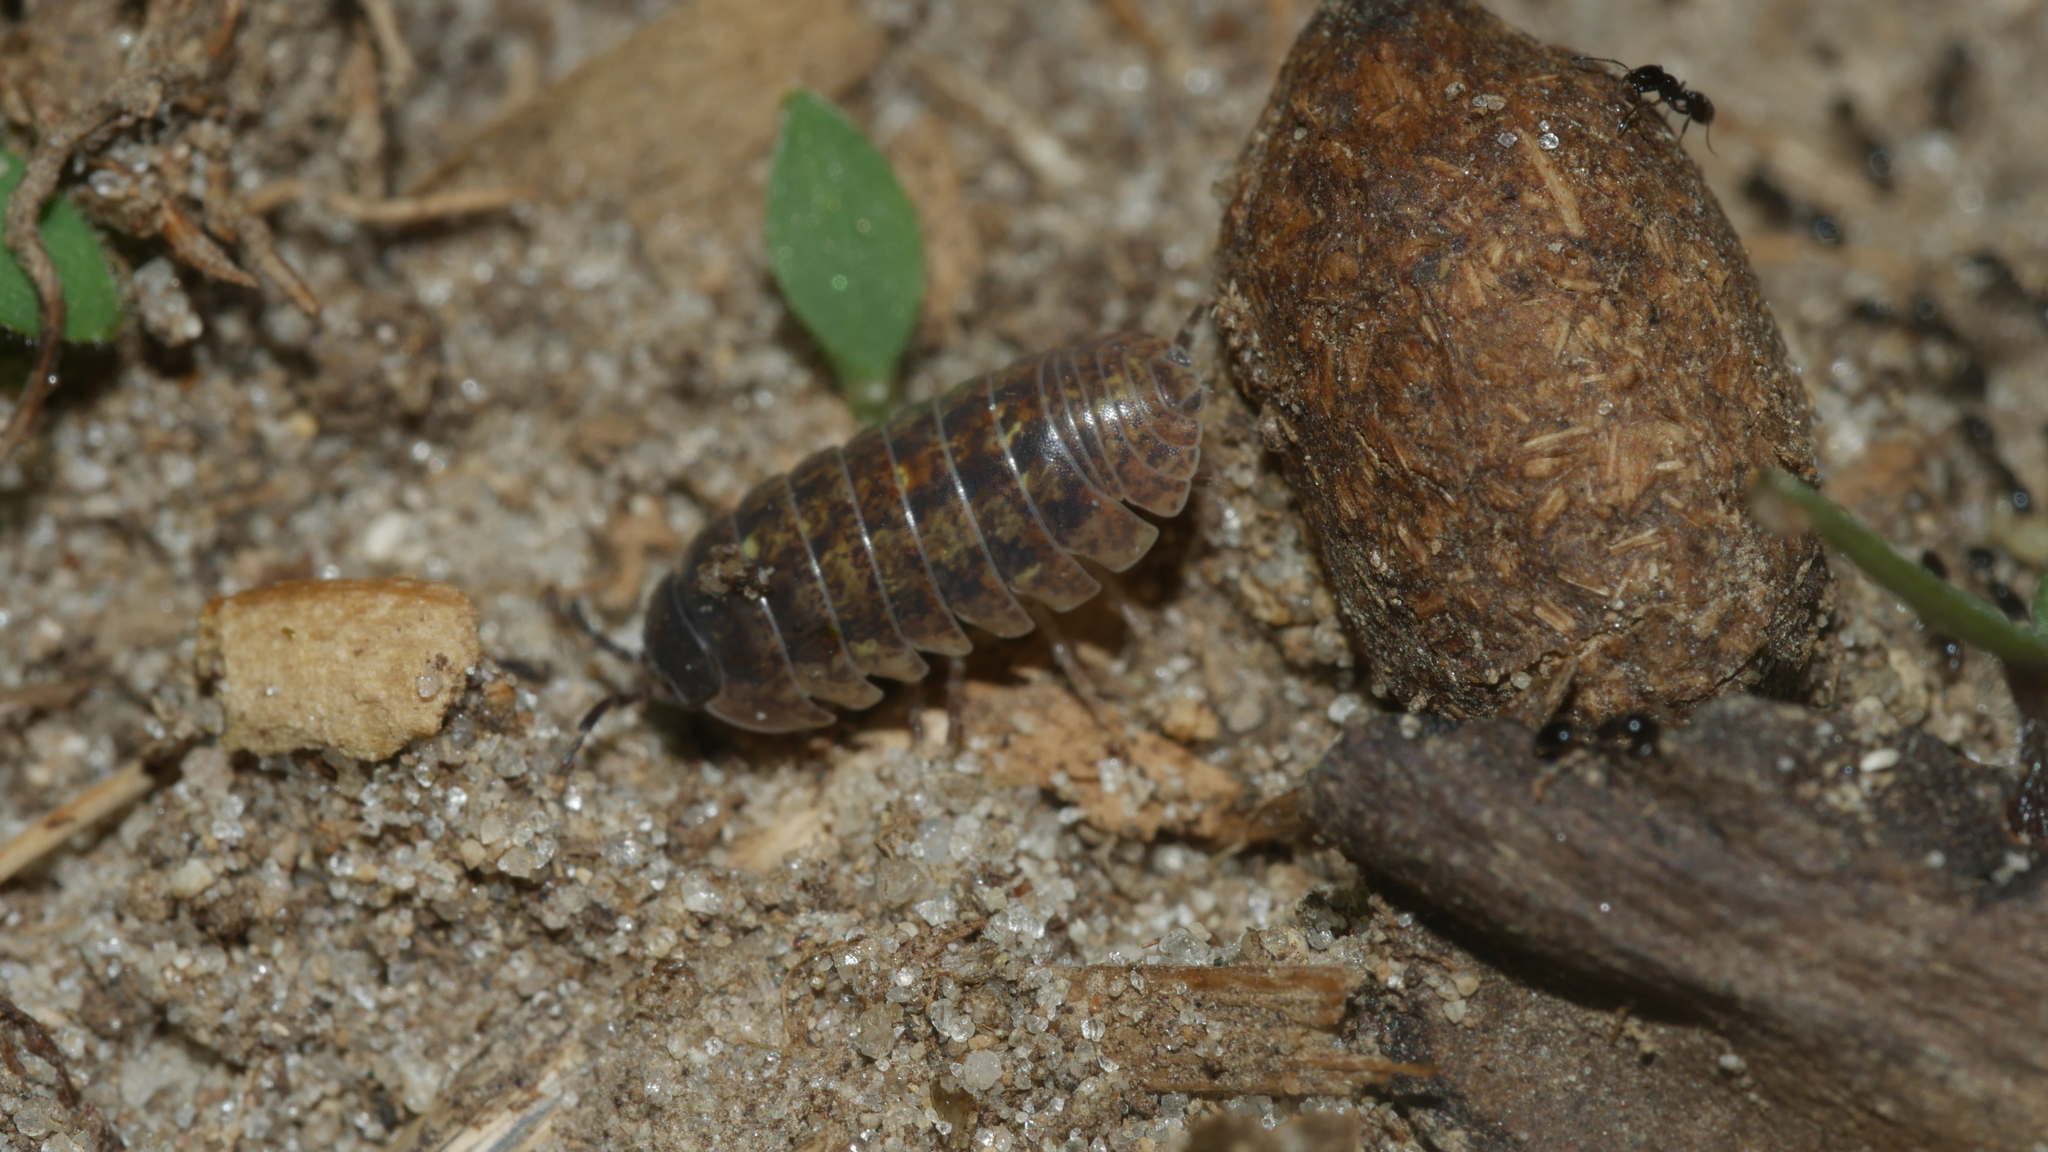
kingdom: Animalia
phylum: Arthropoda
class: Malacostraca
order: Isopoda
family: Armadillidiidae
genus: Armadillidium
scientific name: Armadillidium vulgare
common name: Common pill woodlouse
